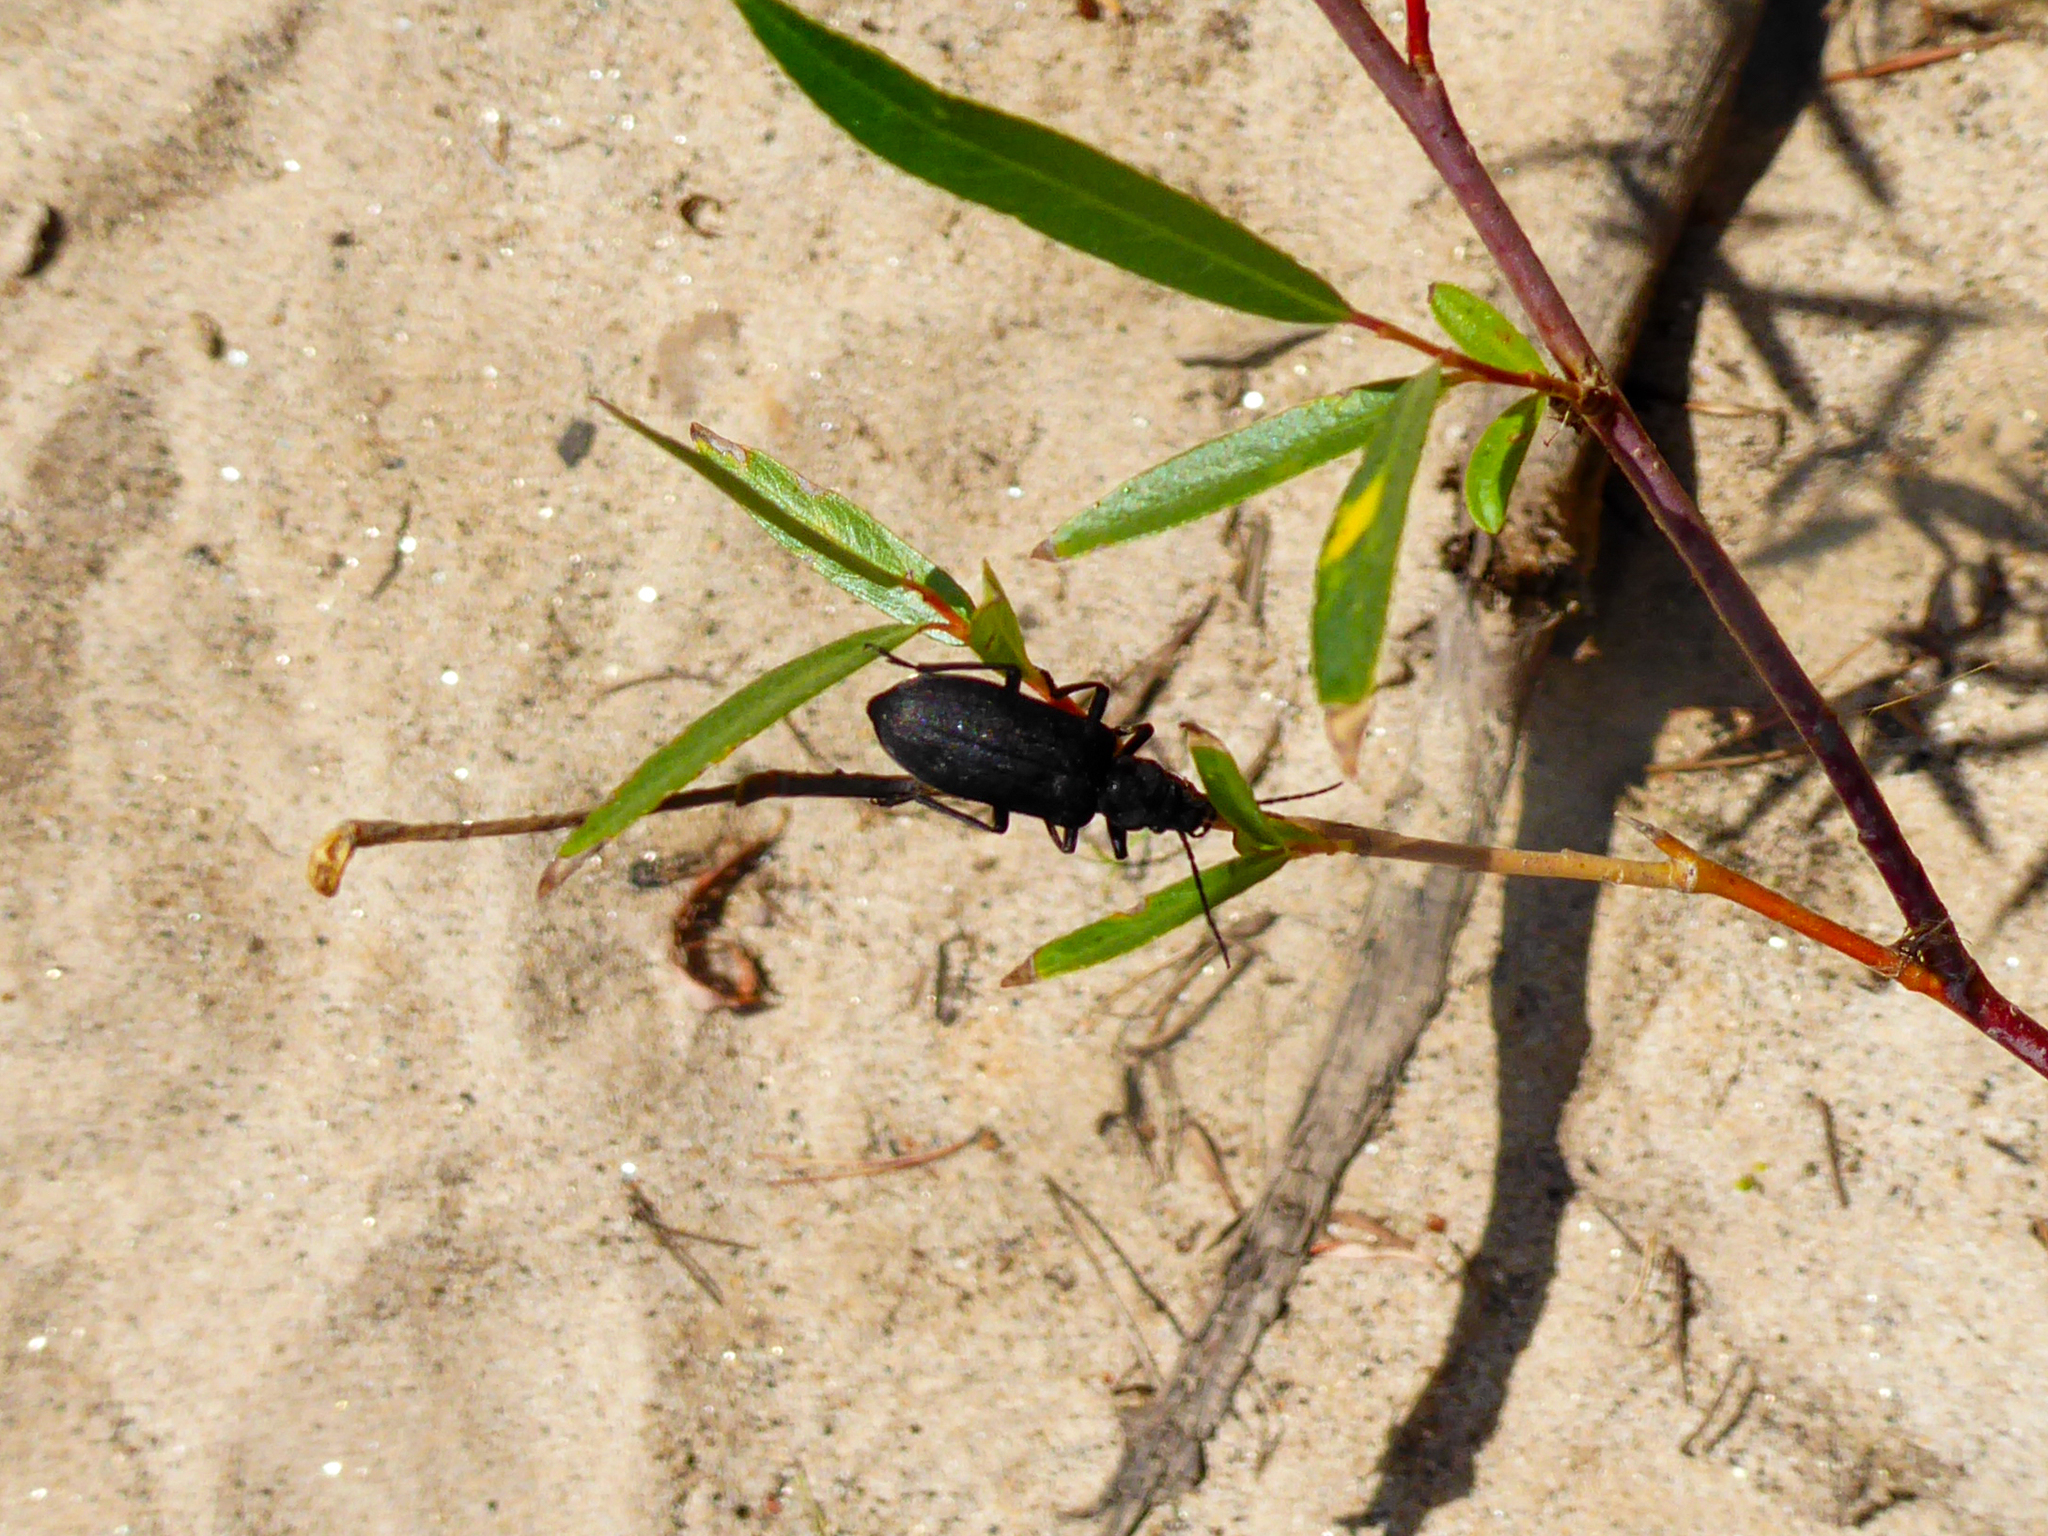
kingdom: Animalia
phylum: Arthropoda
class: Insecta
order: Coleoptera
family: Oedemeridae
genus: Ditylus
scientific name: Ditylus quadricollis
